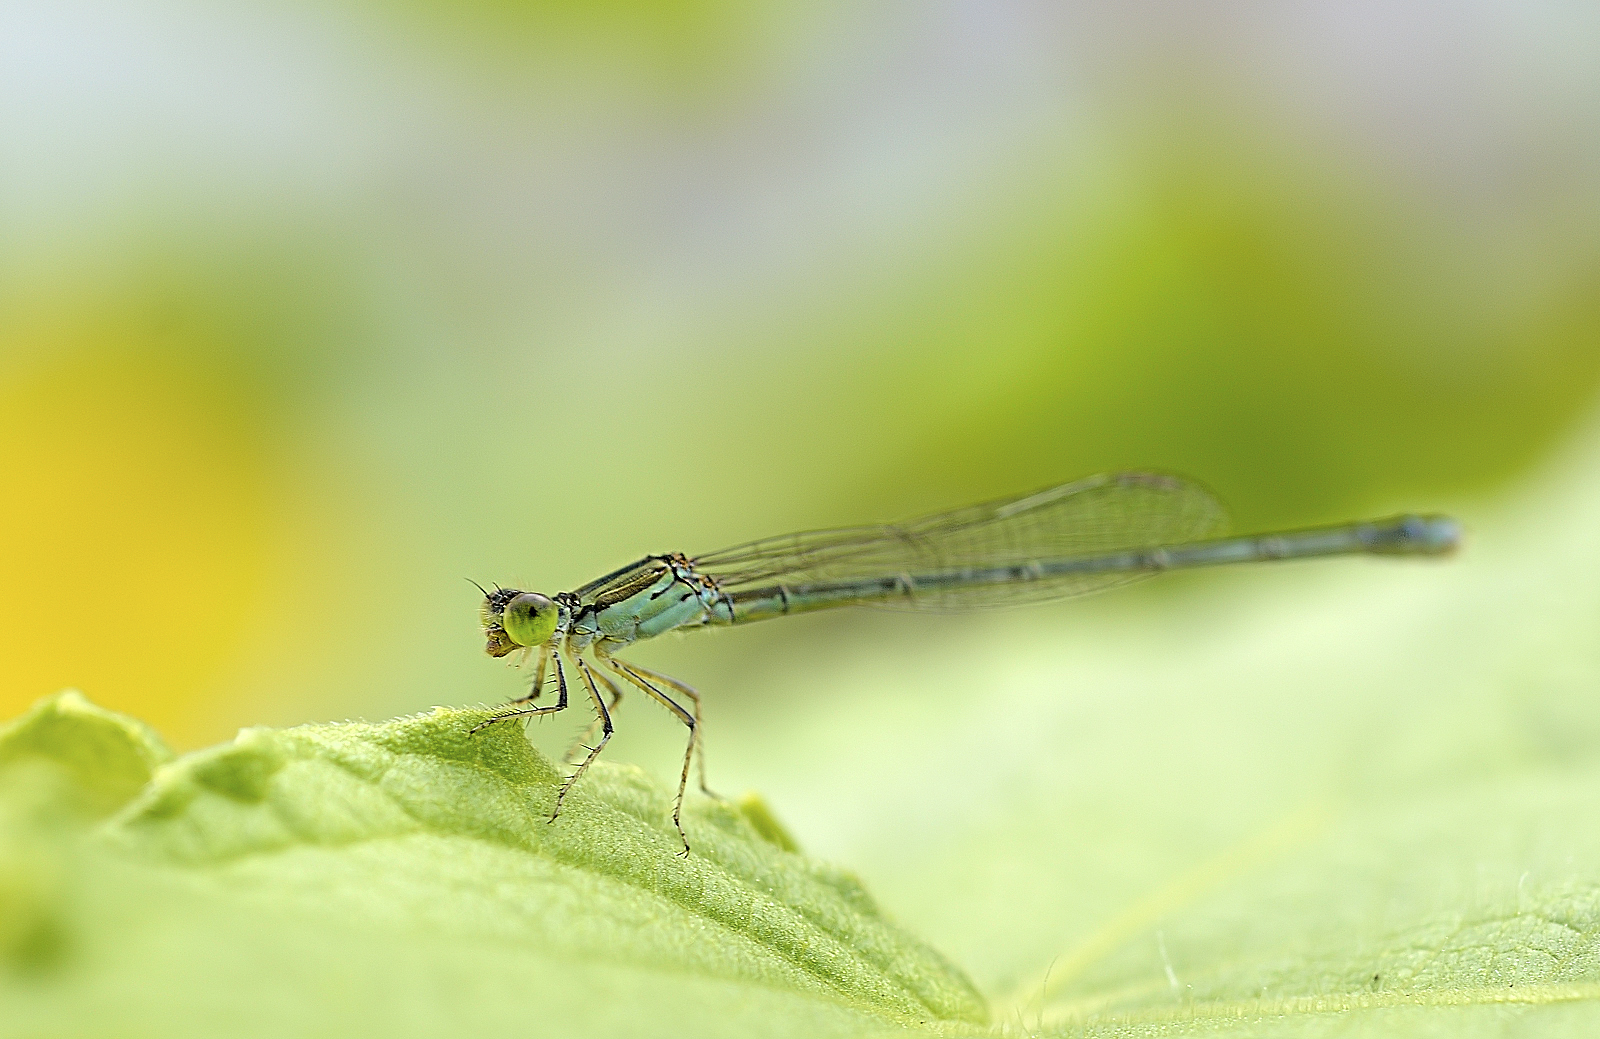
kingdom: Animalia
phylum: Arthropoda
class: Insecta
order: Odonata
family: Coenagrionidae
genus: Paracercion
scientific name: Paracercion calamorum
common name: Dusky lilysquatter
